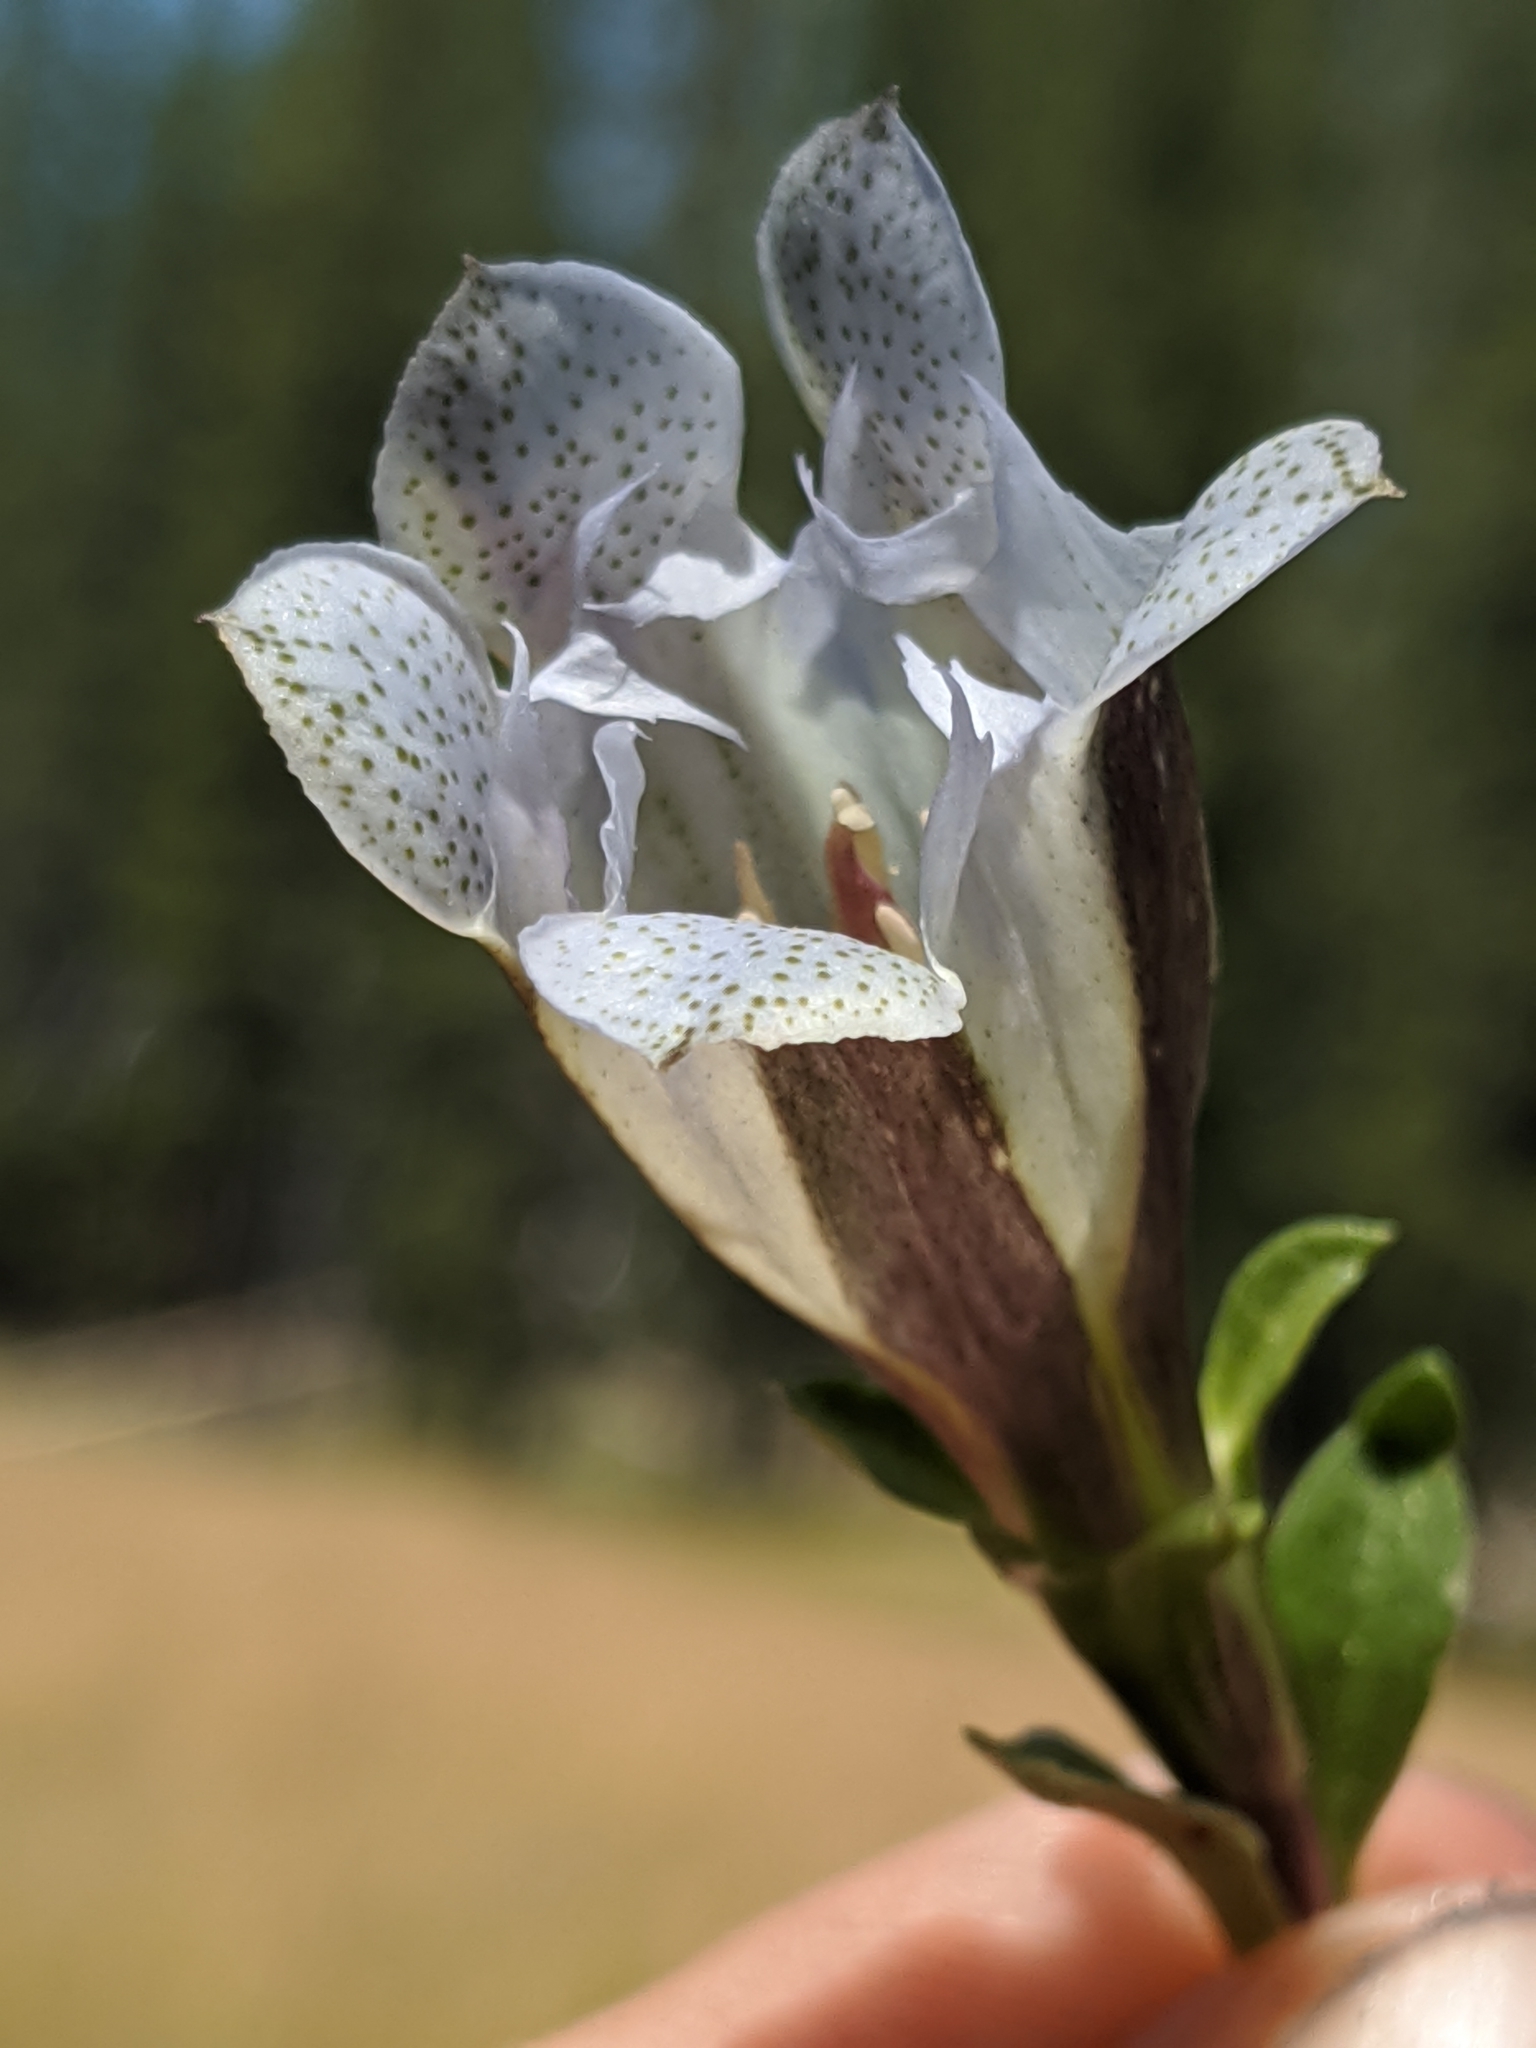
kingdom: Plantae
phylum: Tracheophyta
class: Magnoliopsida
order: Gentianales
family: Gentianaceae
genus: Gentiana
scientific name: Gentiana newberryi
